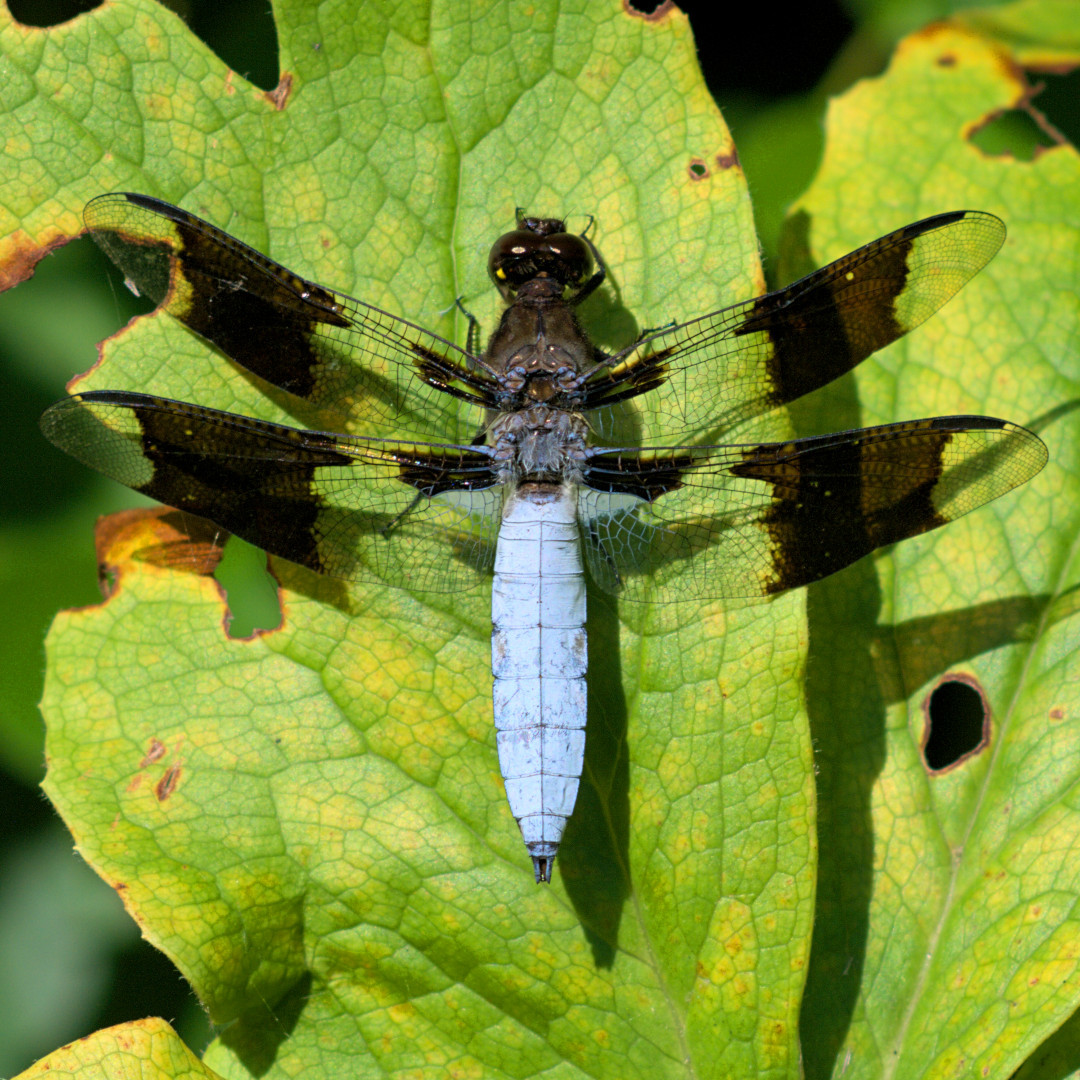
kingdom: Animalia
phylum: Arthropoda
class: Insecta
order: Odonata
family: Libellulidae
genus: Plathemis
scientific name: Plathemis lydia
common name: Common whitetail
